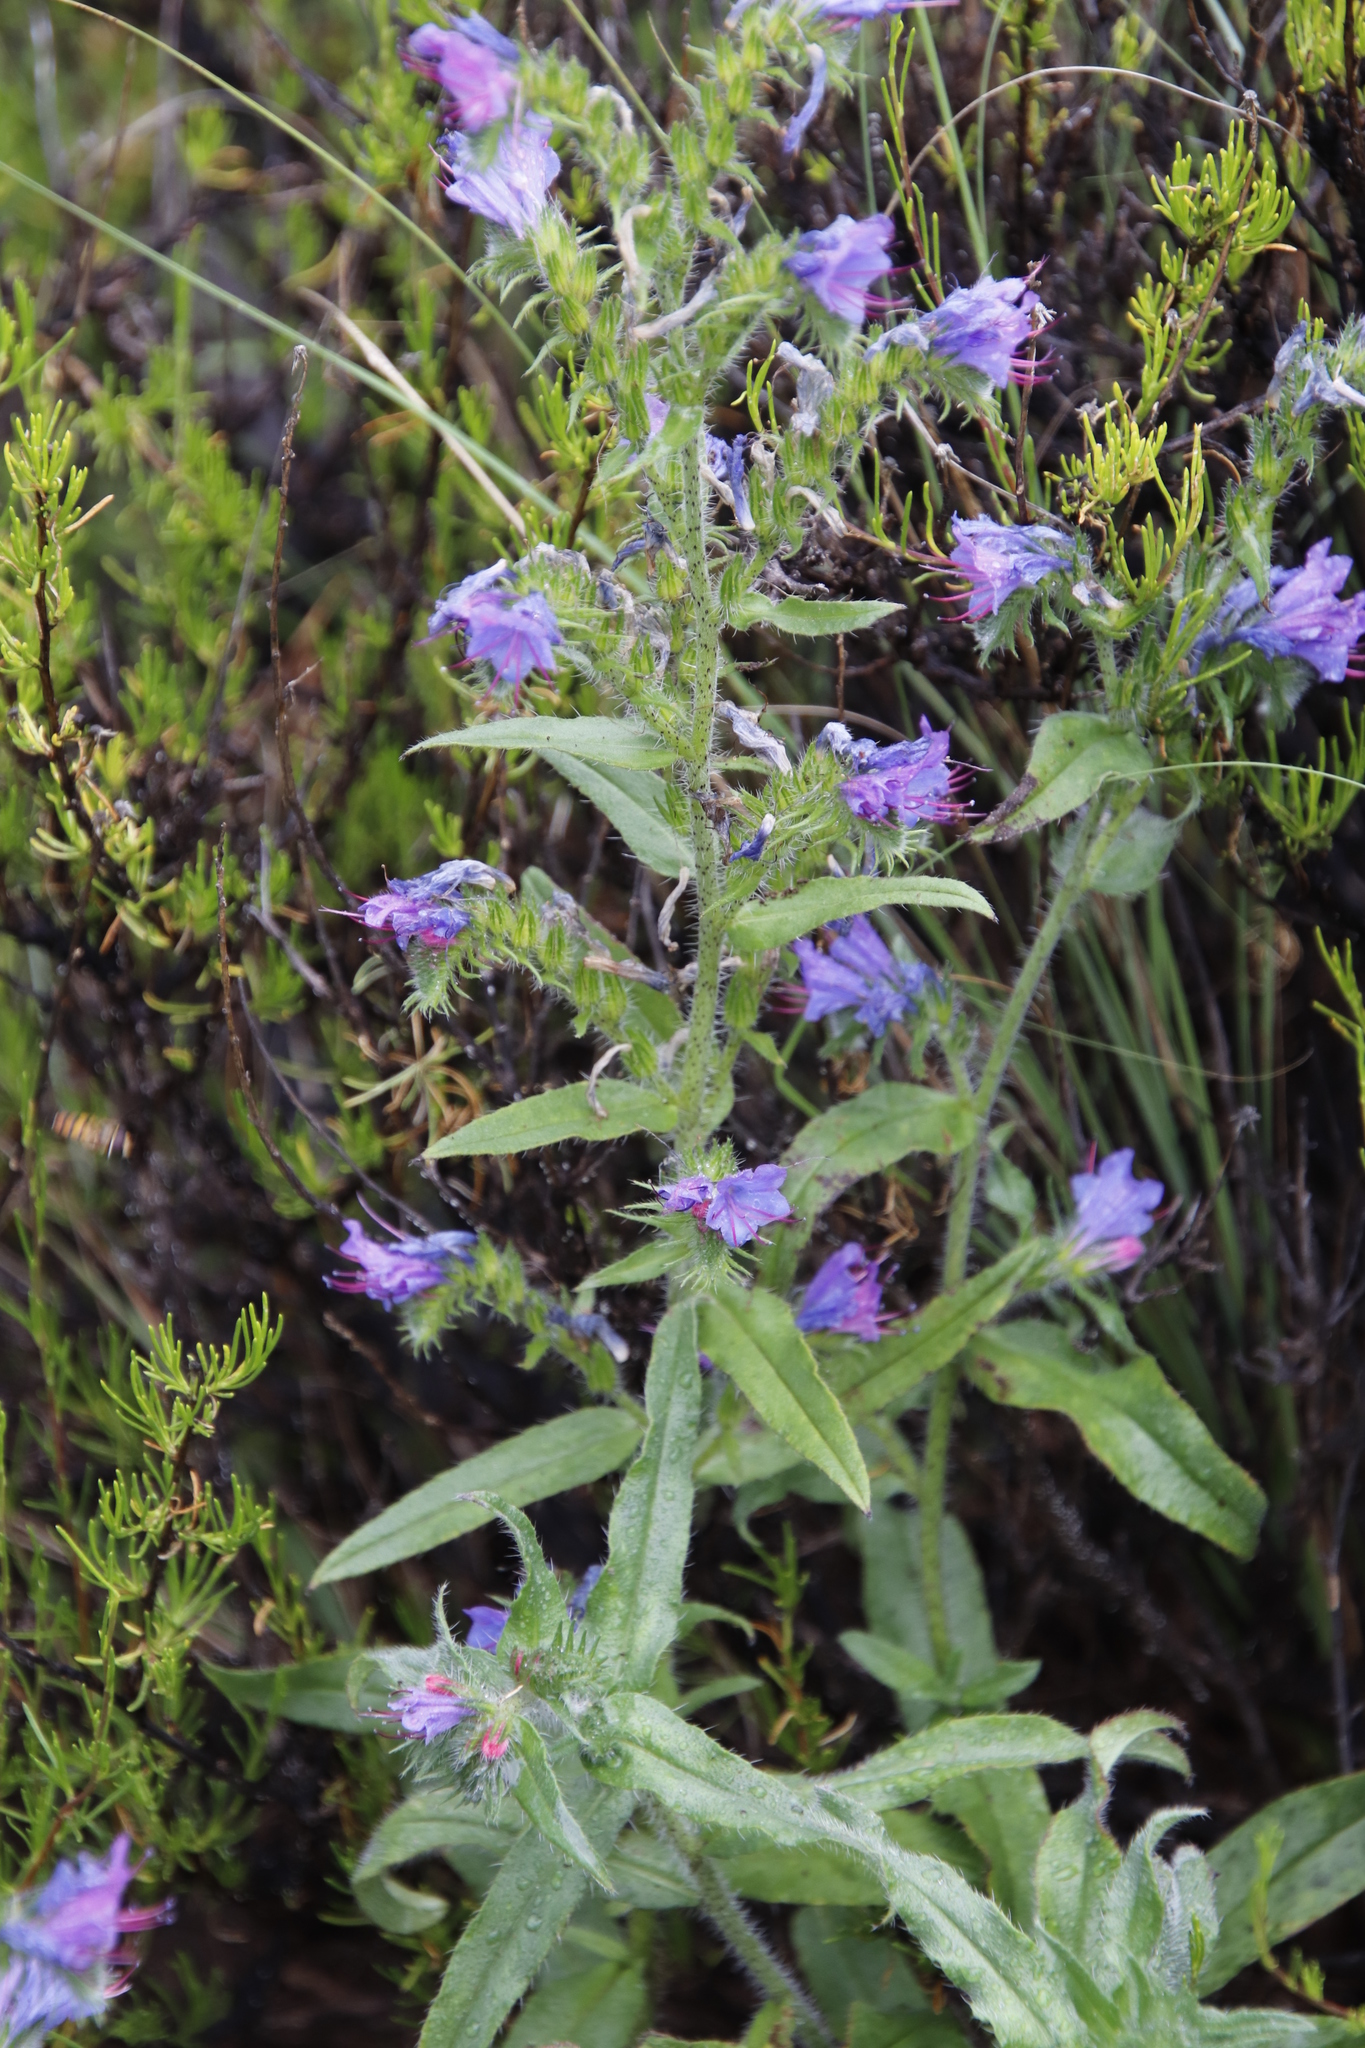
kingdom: Plantae
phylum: Tracheophyta
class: Magnoliopsida
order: Boraginales
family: Boraginaceae
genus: Echium
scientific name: Echium vulgare
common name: Common viper's bugloss
